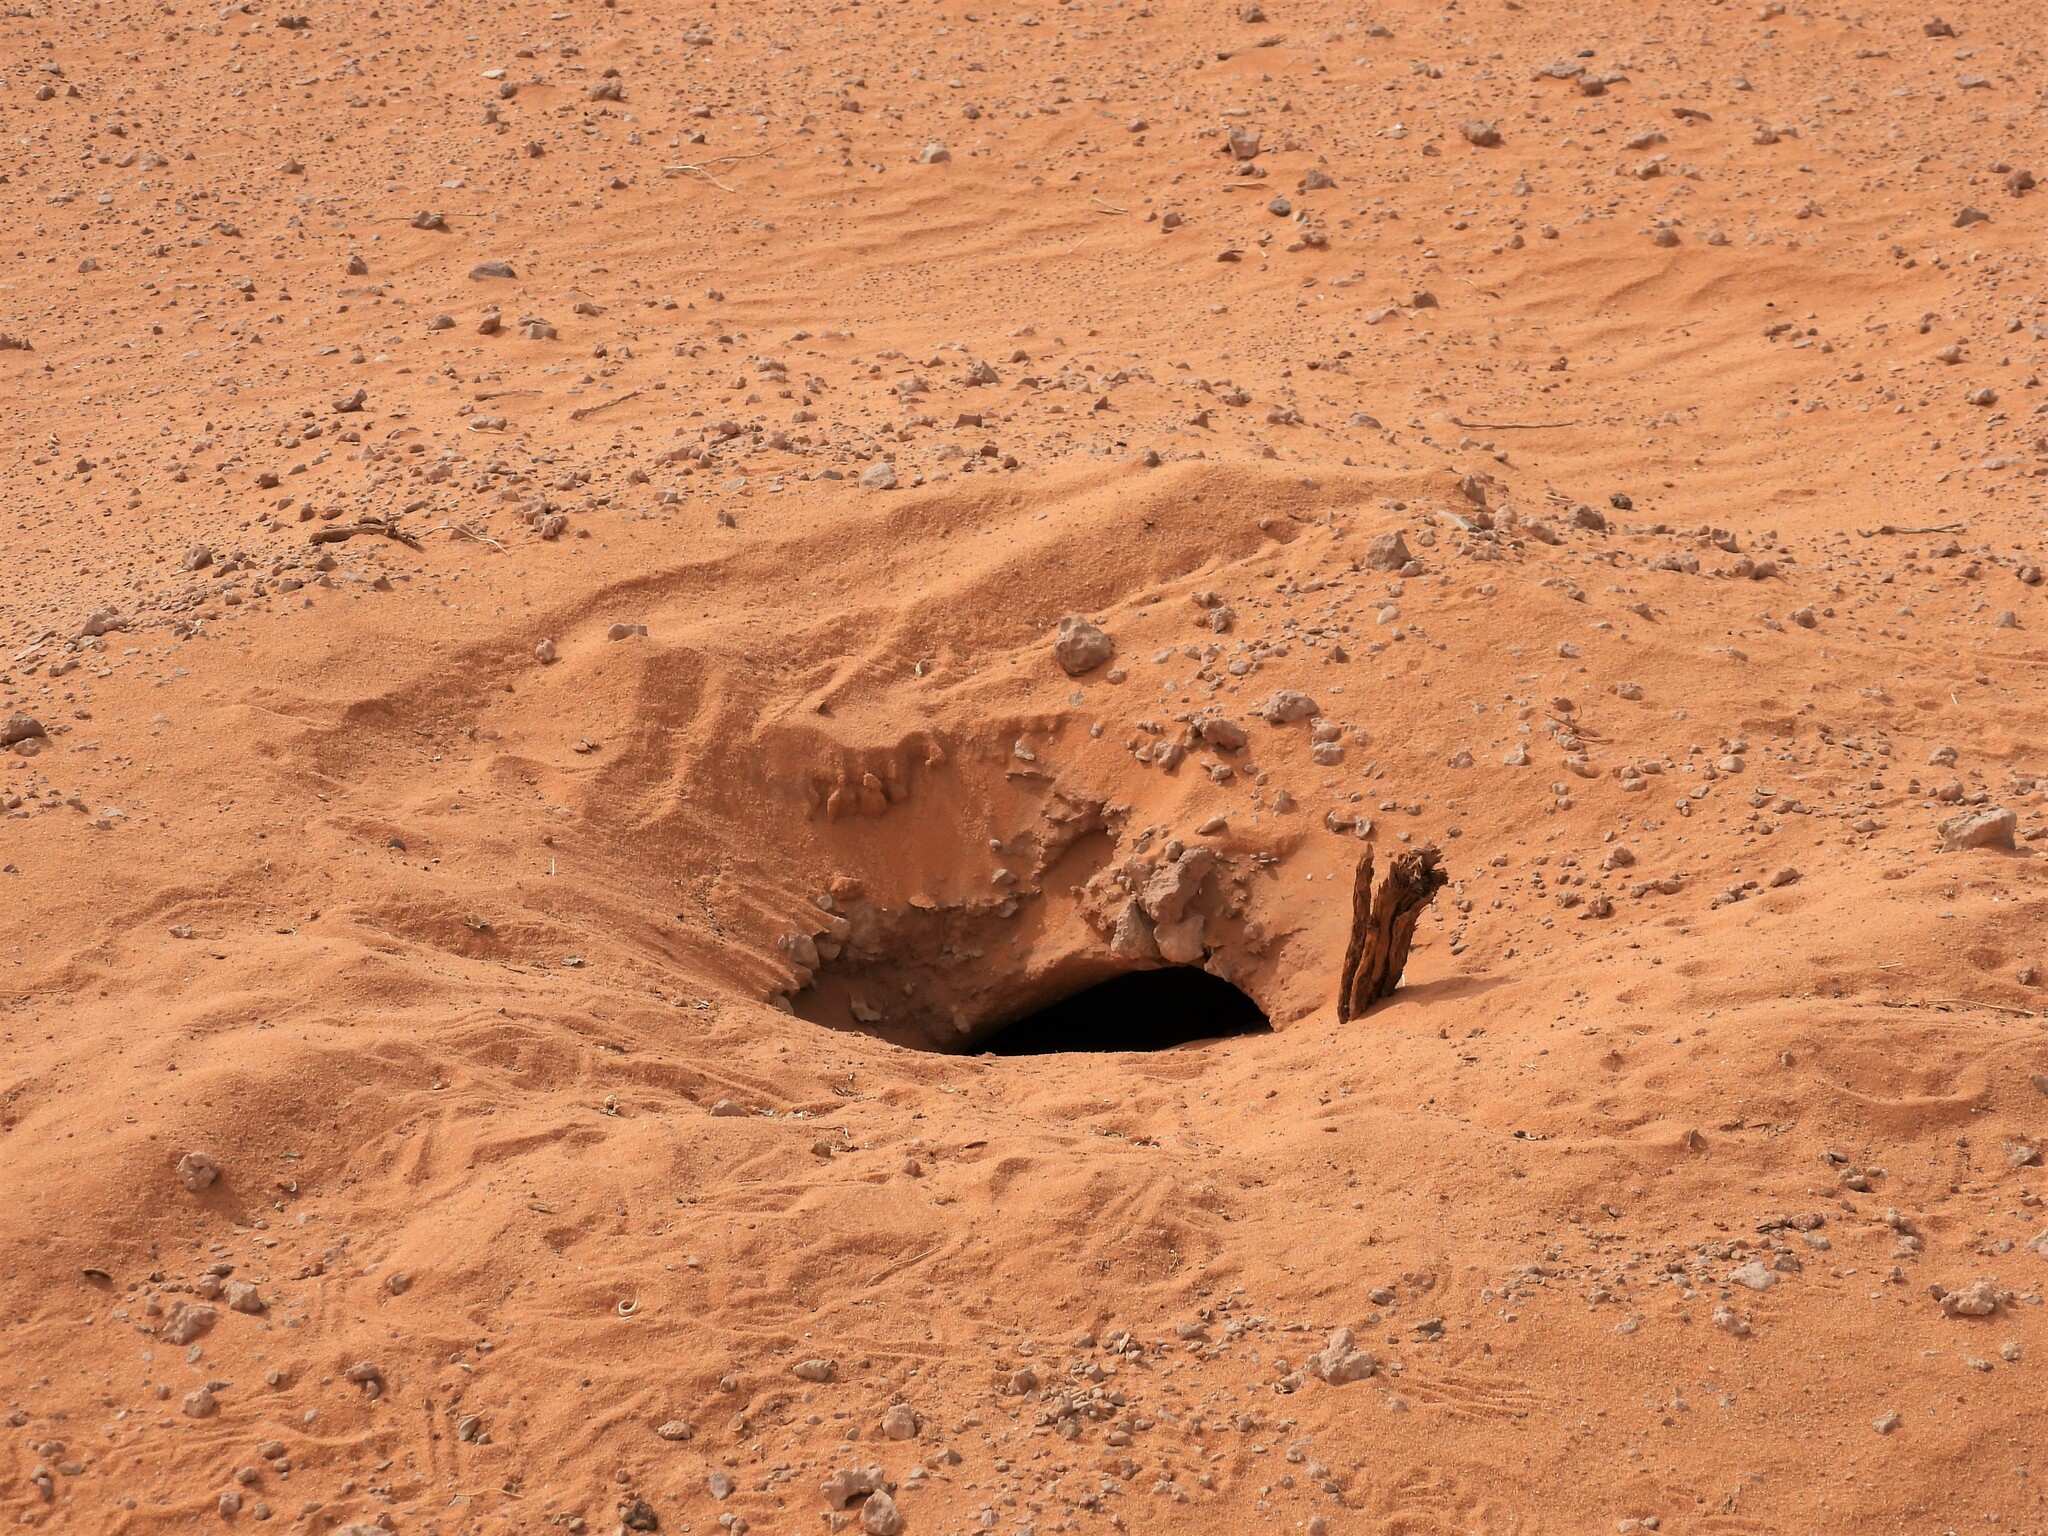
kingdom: Animalia
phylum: Chordata
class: Squamata
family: Agamidae
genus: Uromastyx
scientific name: Uromastyx aegyptia
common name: Egyptian mastigure
